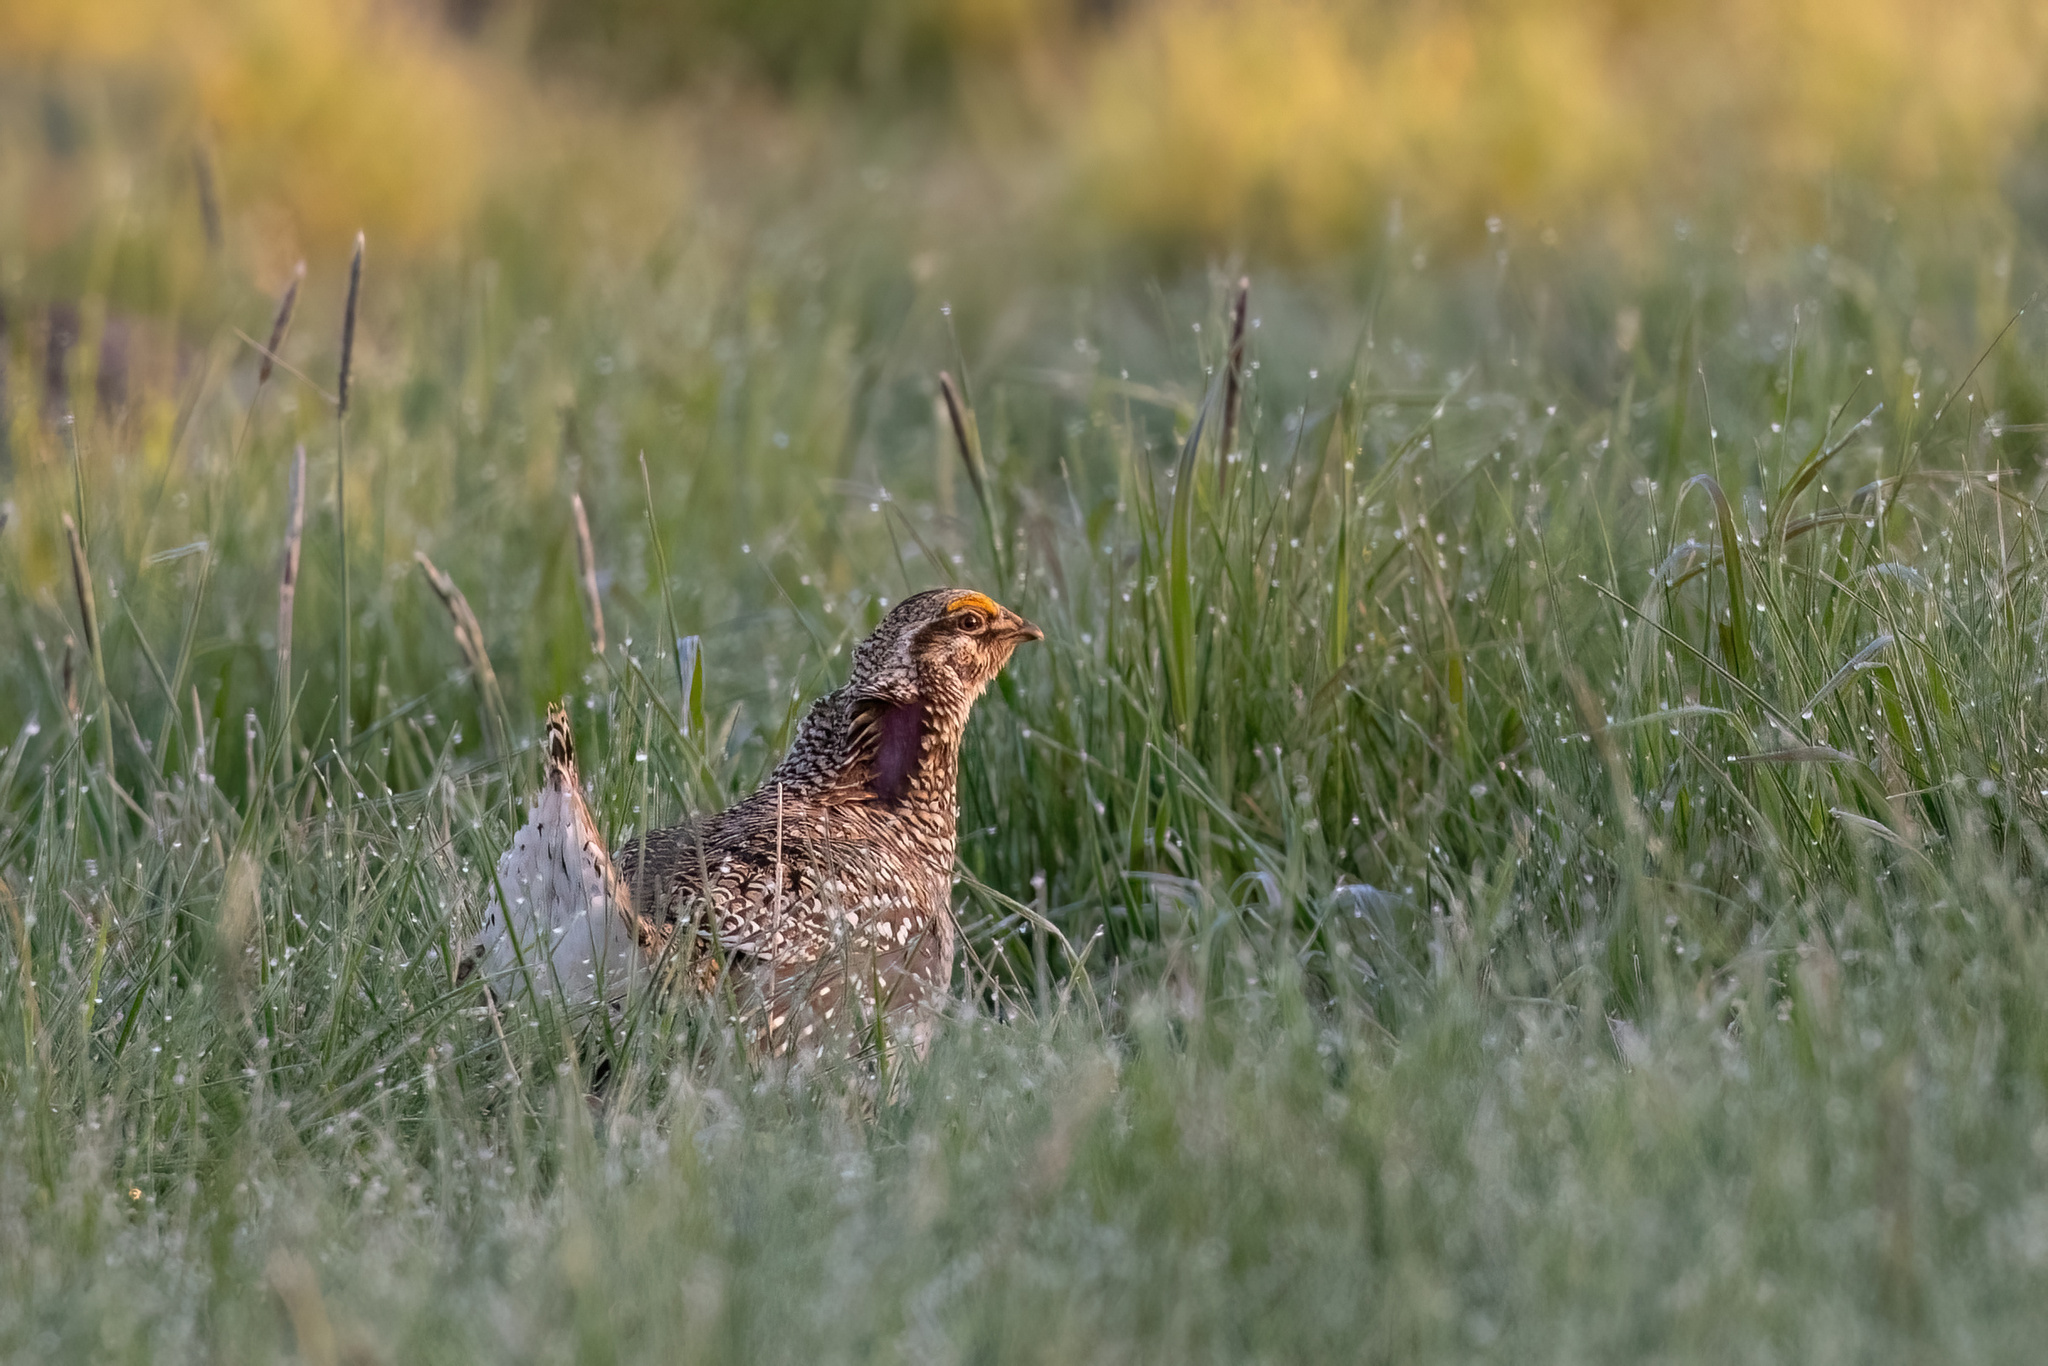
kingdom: Animalia
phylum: Chordata
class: Aves
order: Galliformes
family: Phasianidae
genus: Tympanuchus
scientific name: Tympanuchus phasianellus
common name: Sharp-tailed grouse
